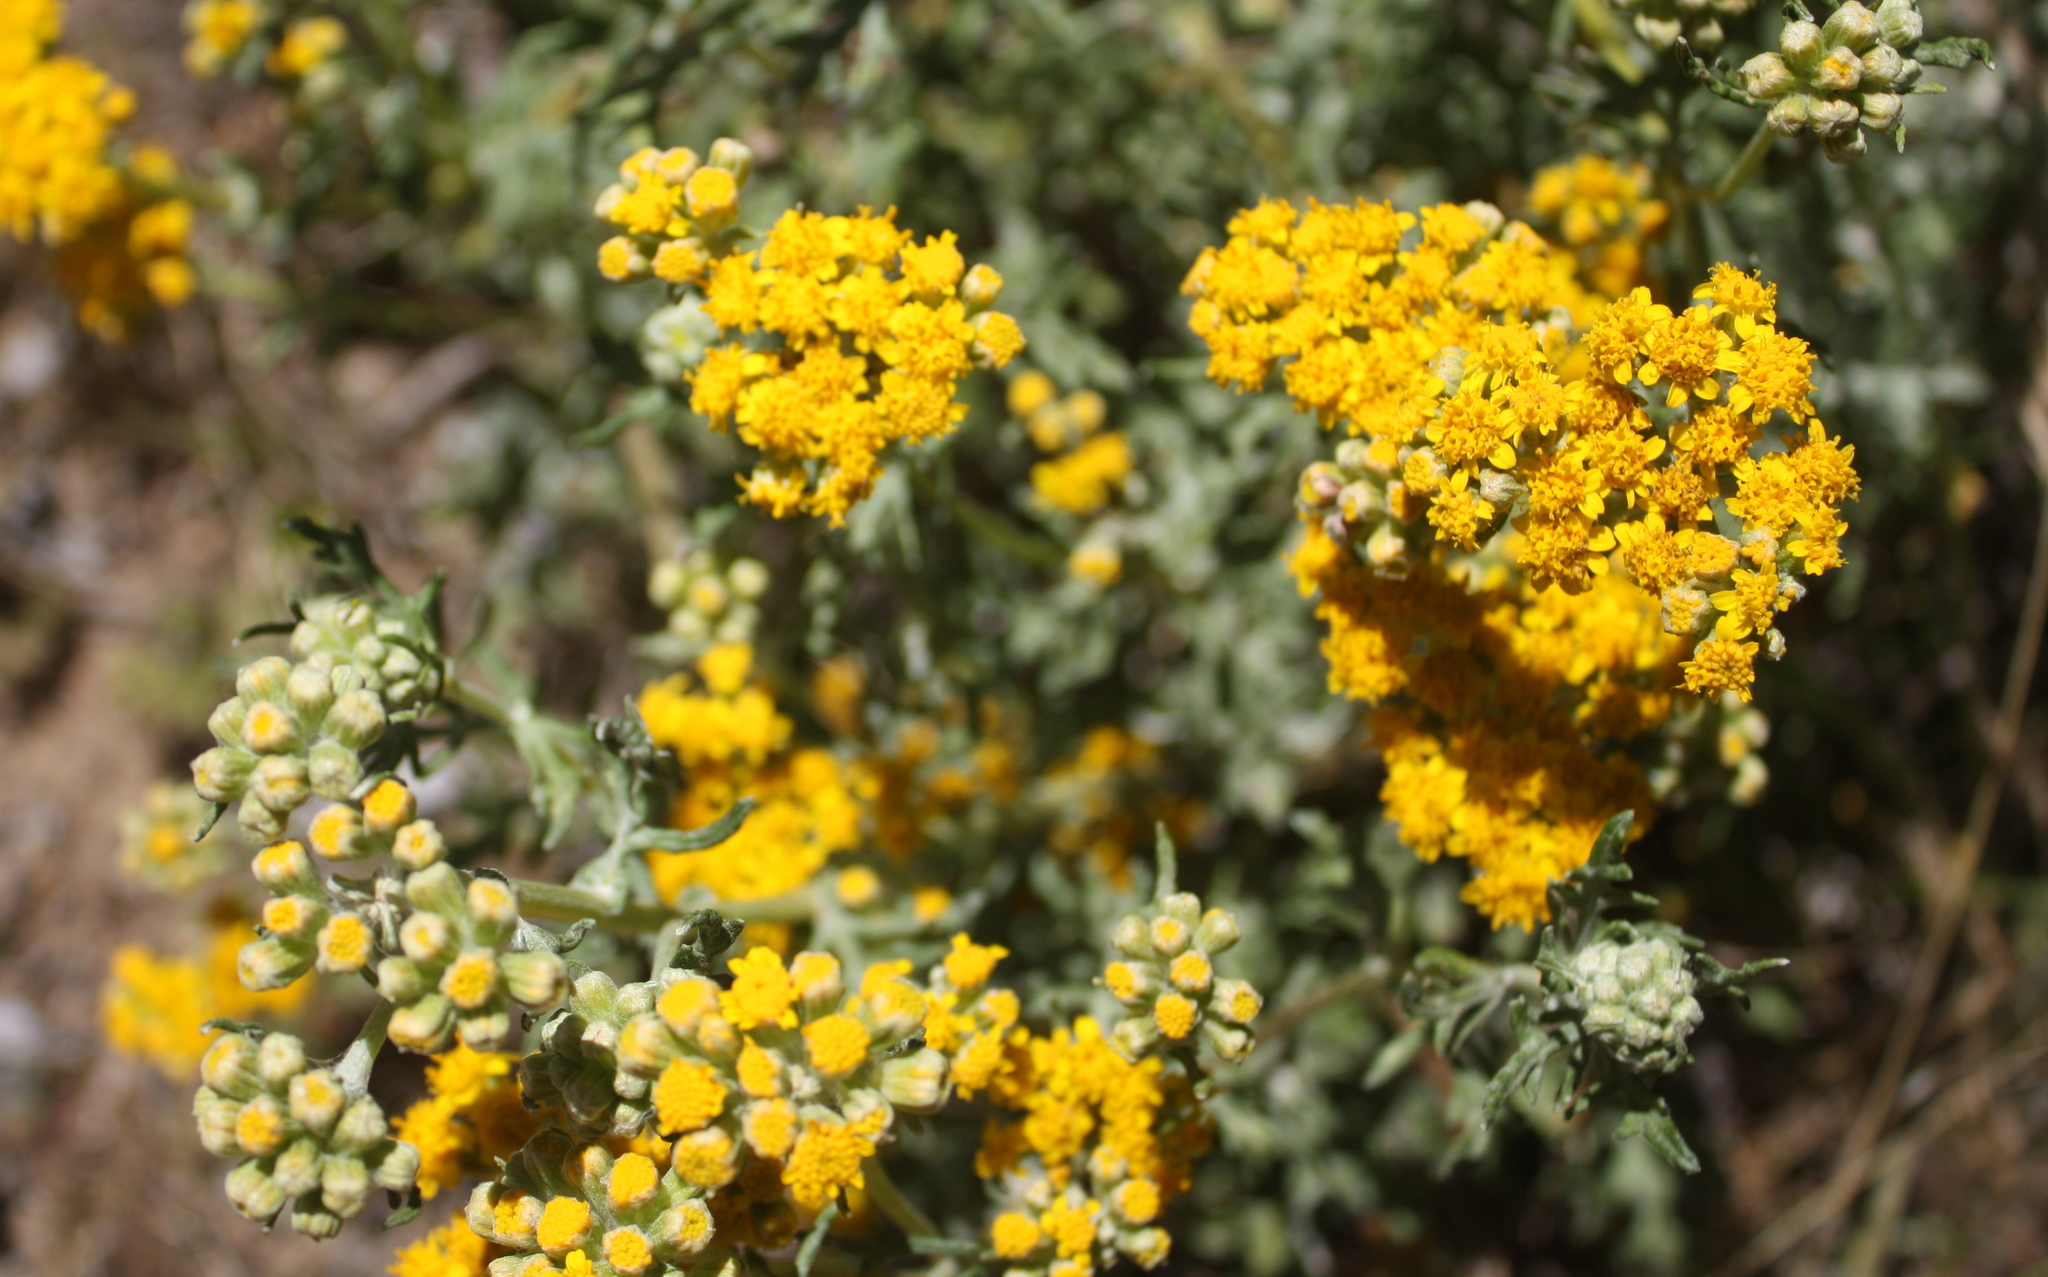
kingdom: Plantae
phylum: Tracheophyta
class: Magnoliopsida
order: Asterales
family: Asteraceae
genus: Eriophyllum
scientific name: Eriophyllum staechadifolium
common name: Lizardtail
